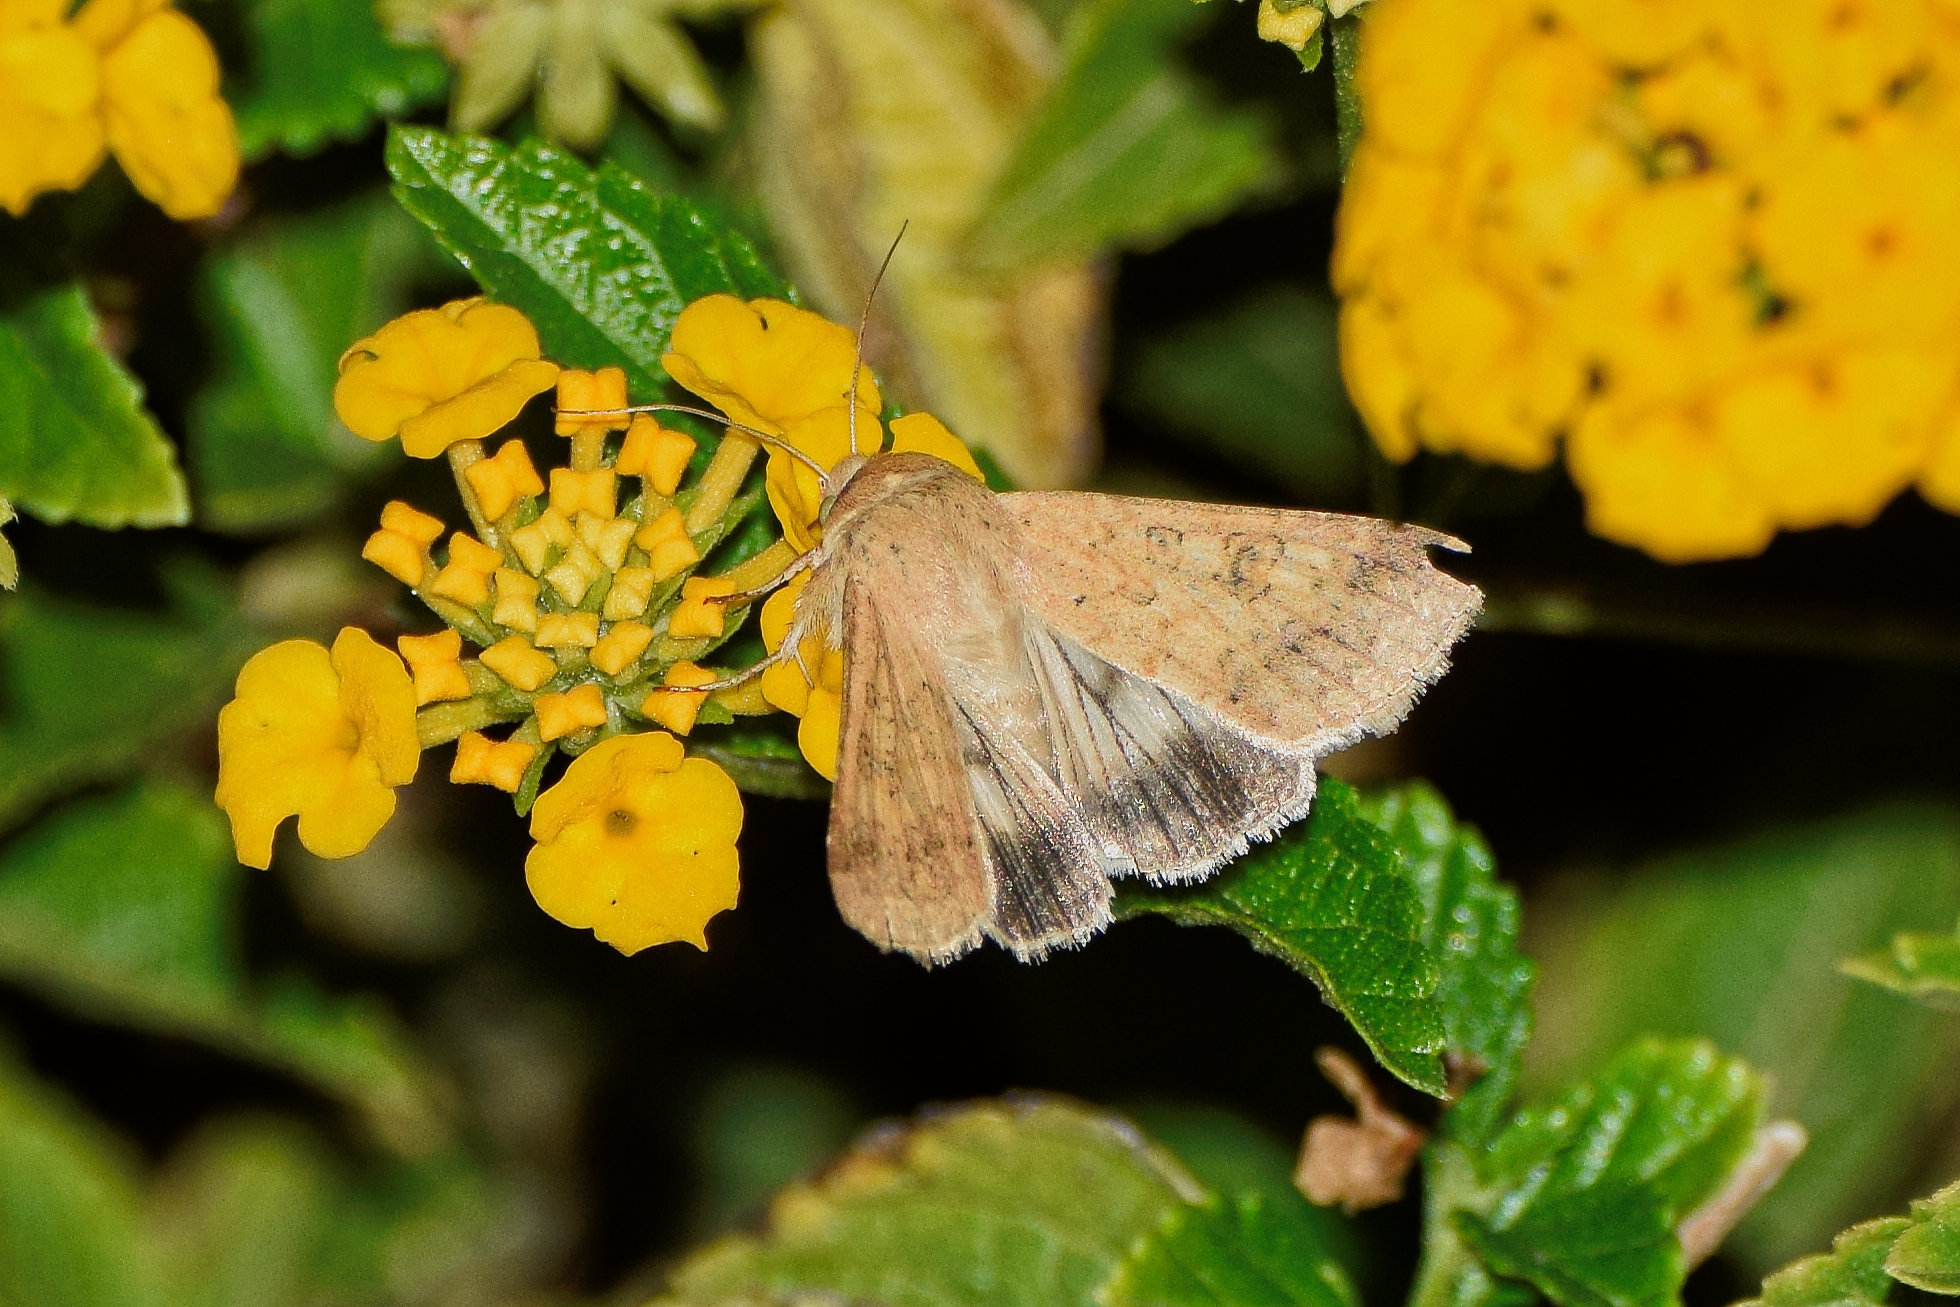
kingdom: Animalia
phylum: Arthropoda
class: Insecta
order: Lepidoptera
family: Noctuidae
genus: Helicoverpa
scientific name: Helicoverpa armigera
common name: Cotton bollworm
